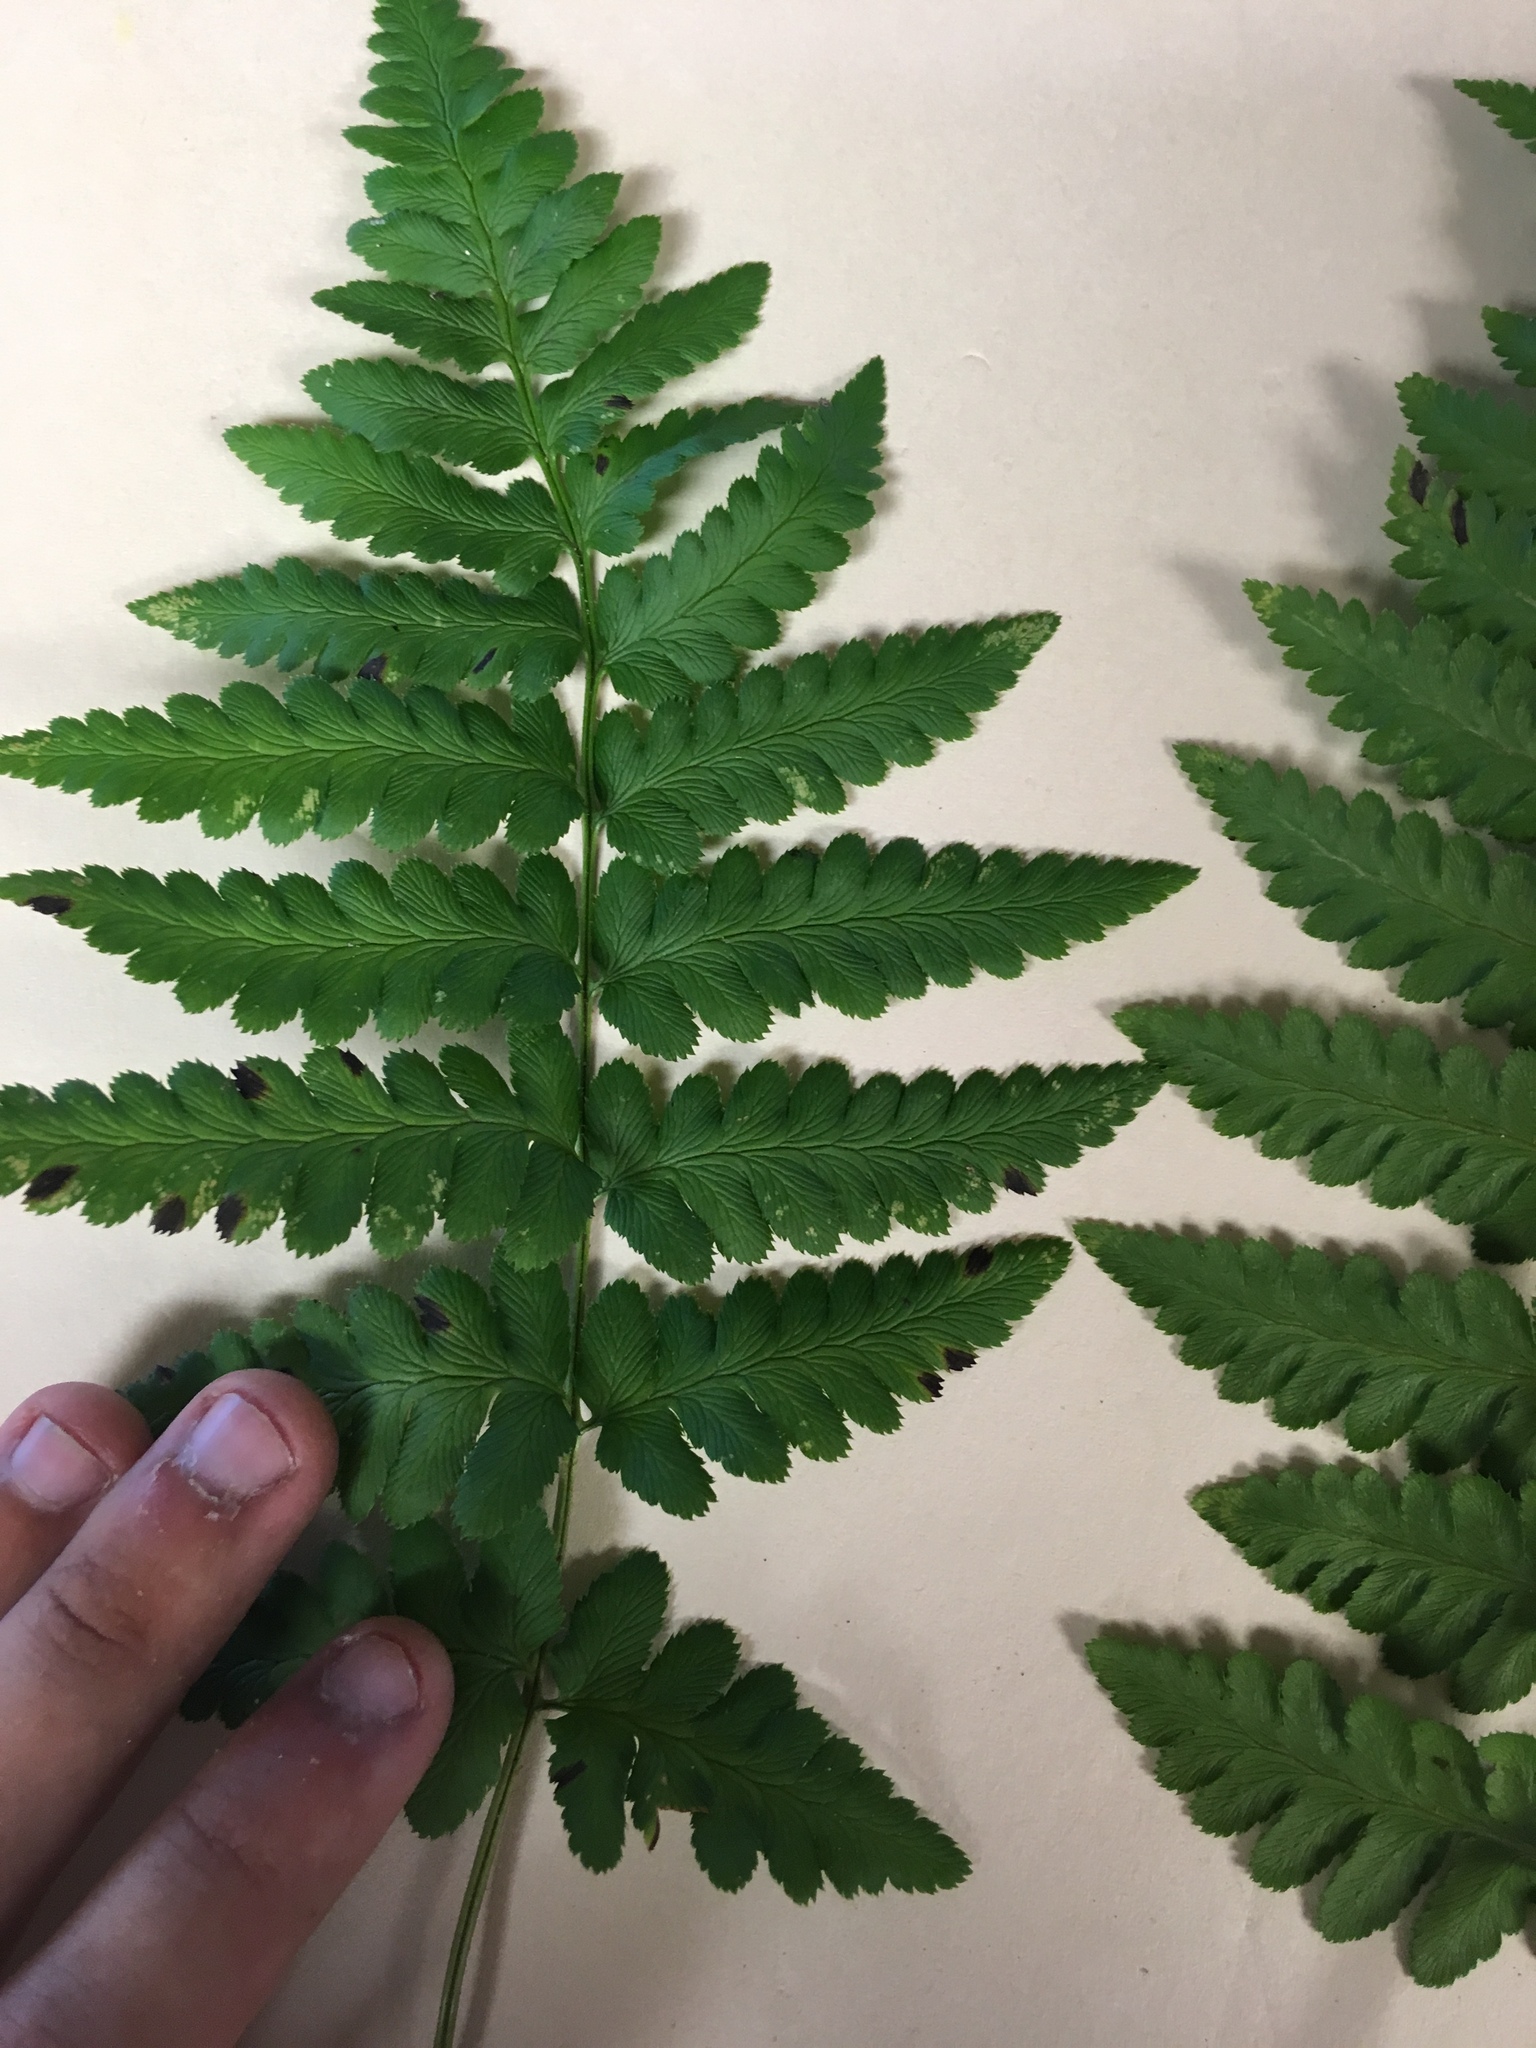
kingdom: Plantae
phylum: Tracheophyta
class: Polypodiopsida
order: Polypodiales
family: Dryopteridaceae
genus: Dryopteris
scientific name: Dryopteris cristata
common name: Crested wood fern
